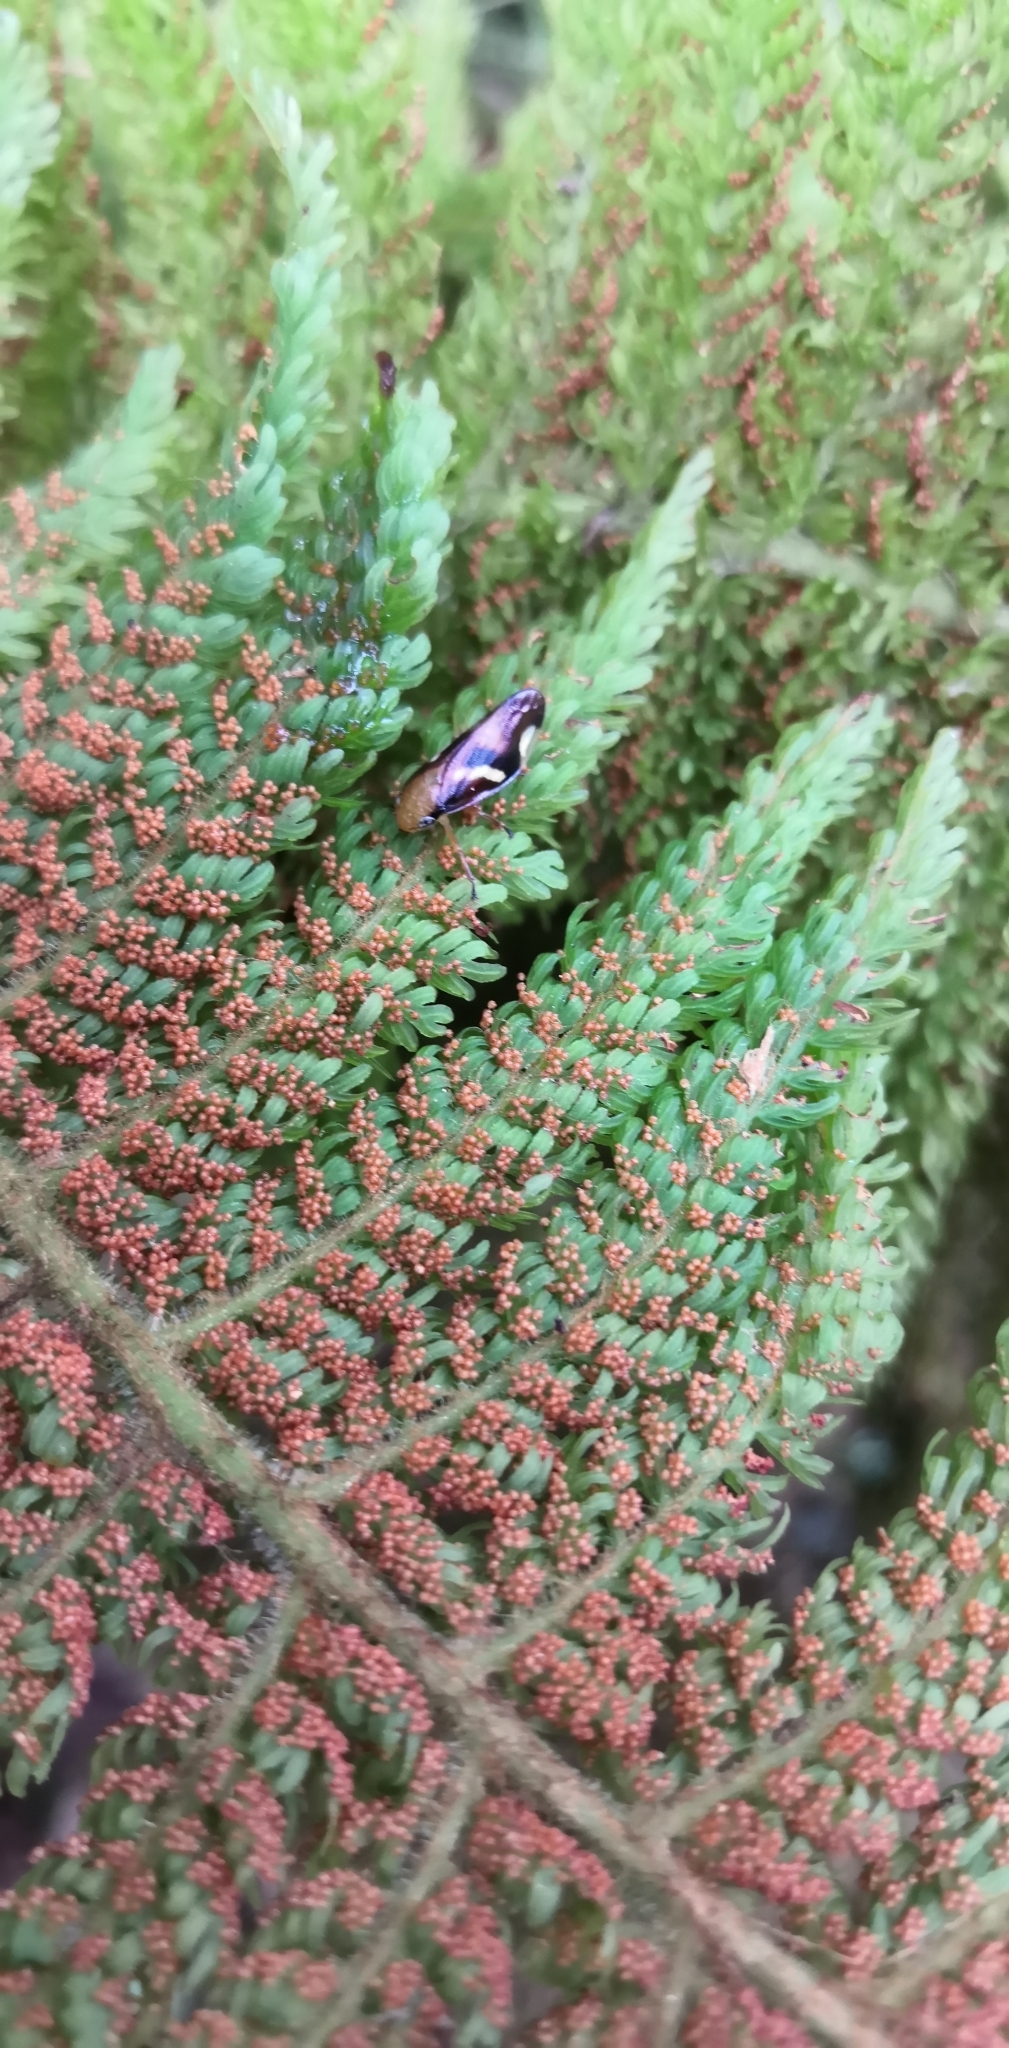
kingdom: Animalia
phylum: Arthropoda
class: Insecta
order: Hemiptera
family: Aphrophoridae
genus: Carystoterpa
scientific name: Carystoterpa fingens
